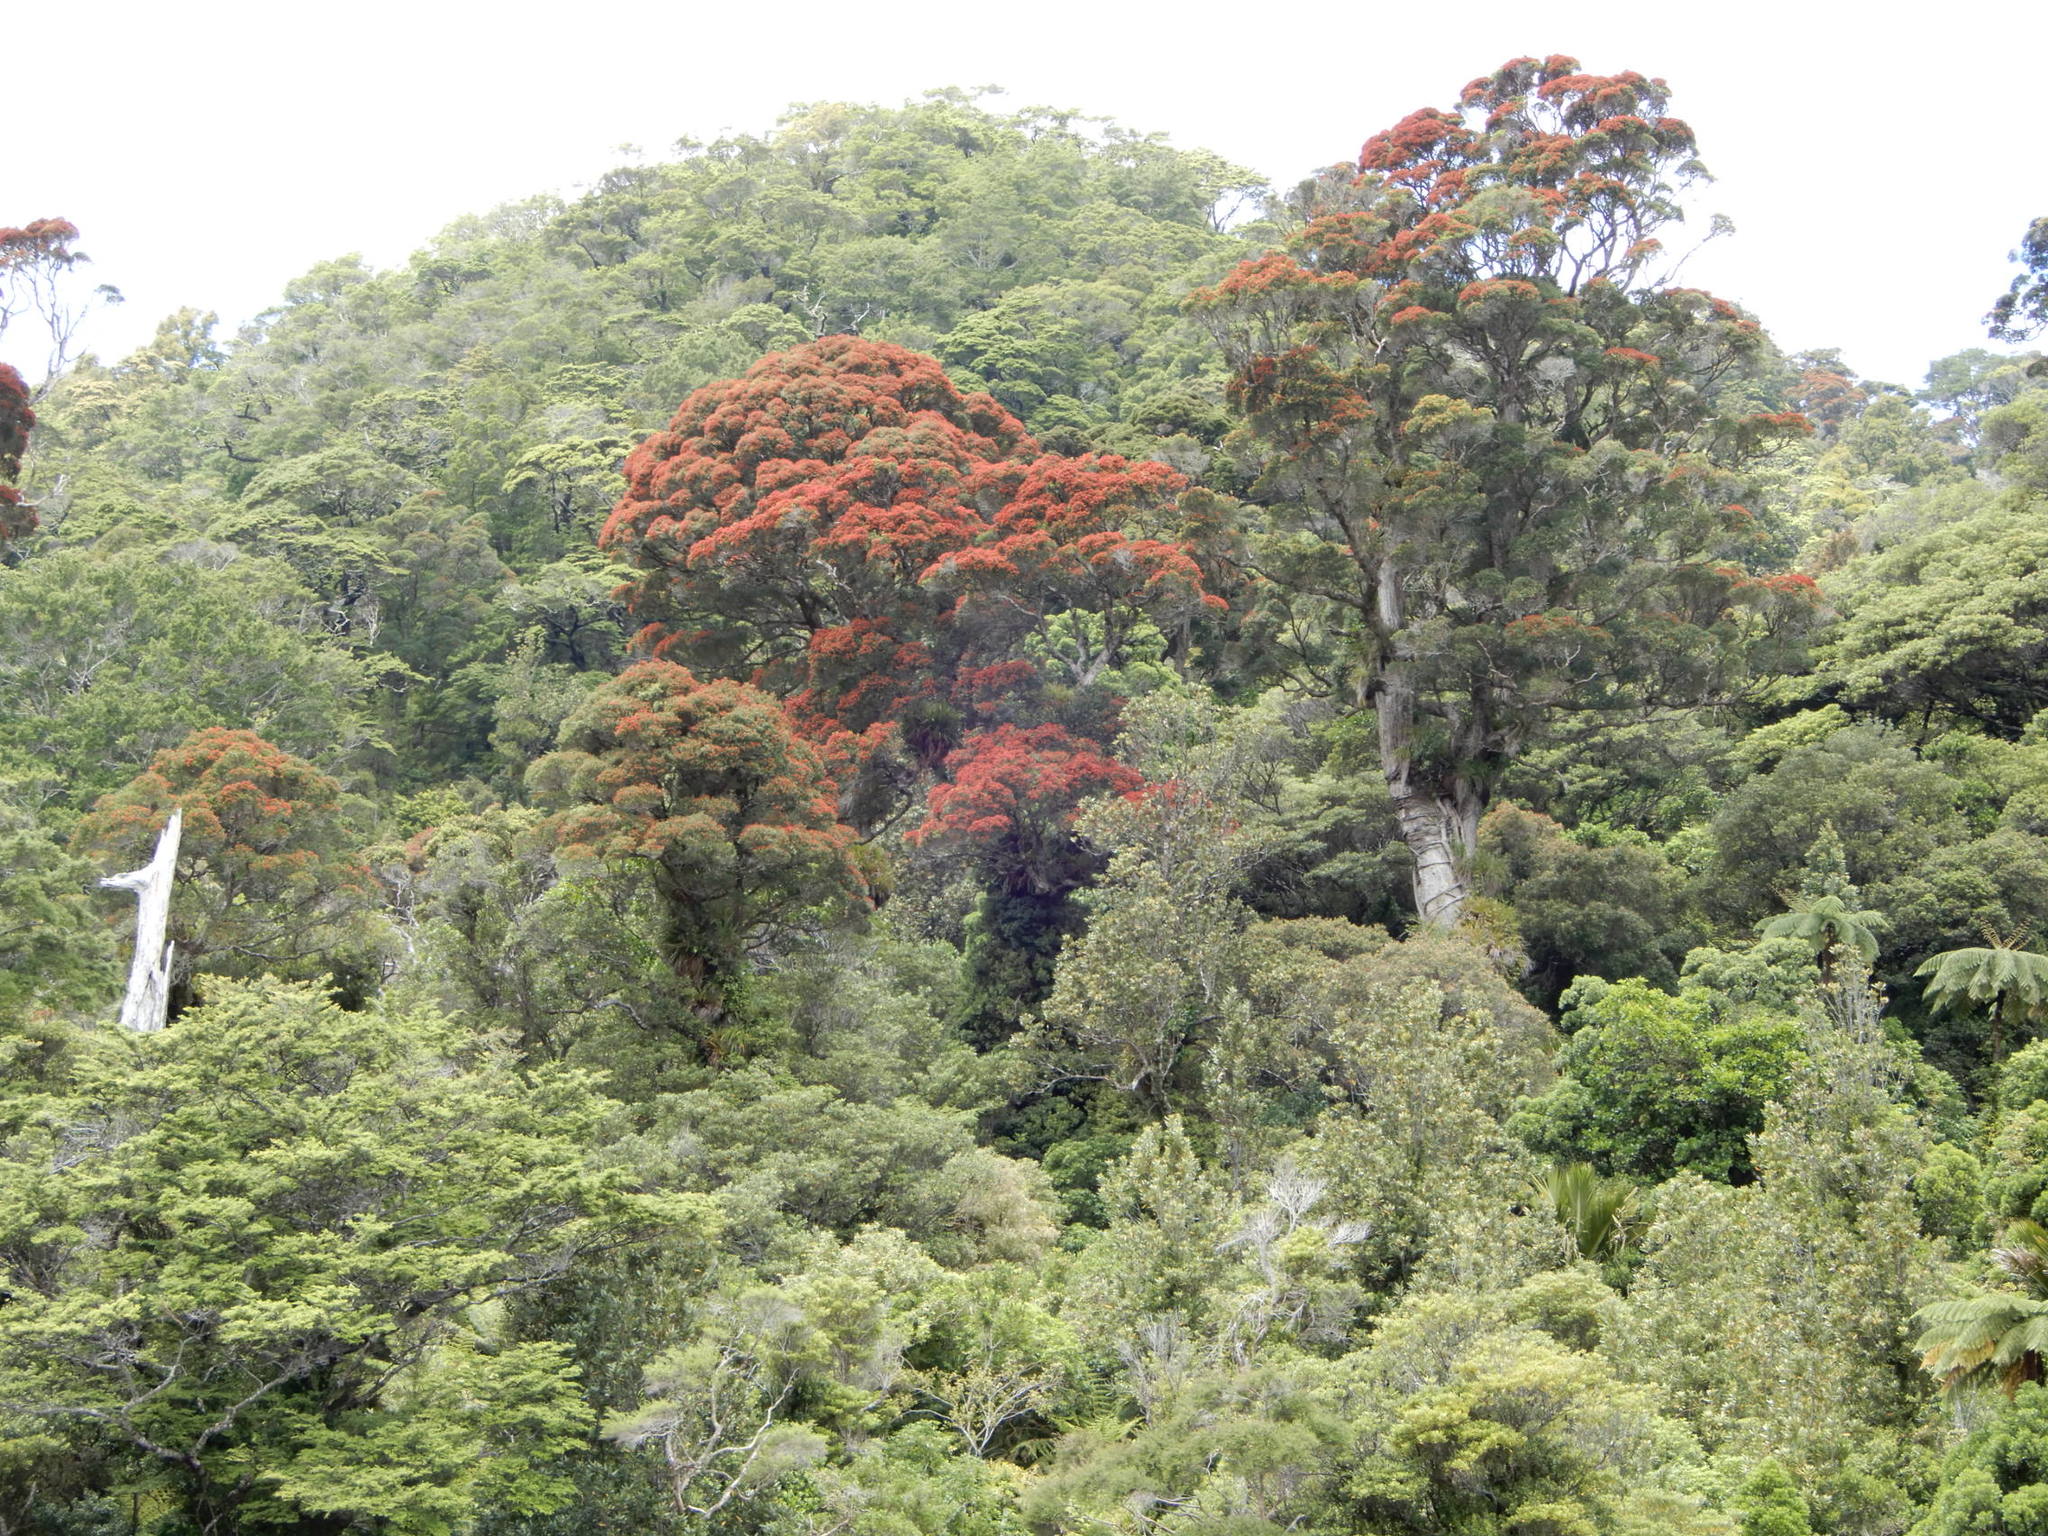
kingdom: Plantae
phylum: Tracheophyta
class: Magnoliopsida
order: Myrtales
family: Myrtaceae
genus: Metrosideros
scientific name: Metrosideros robusta
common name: Northern rata
